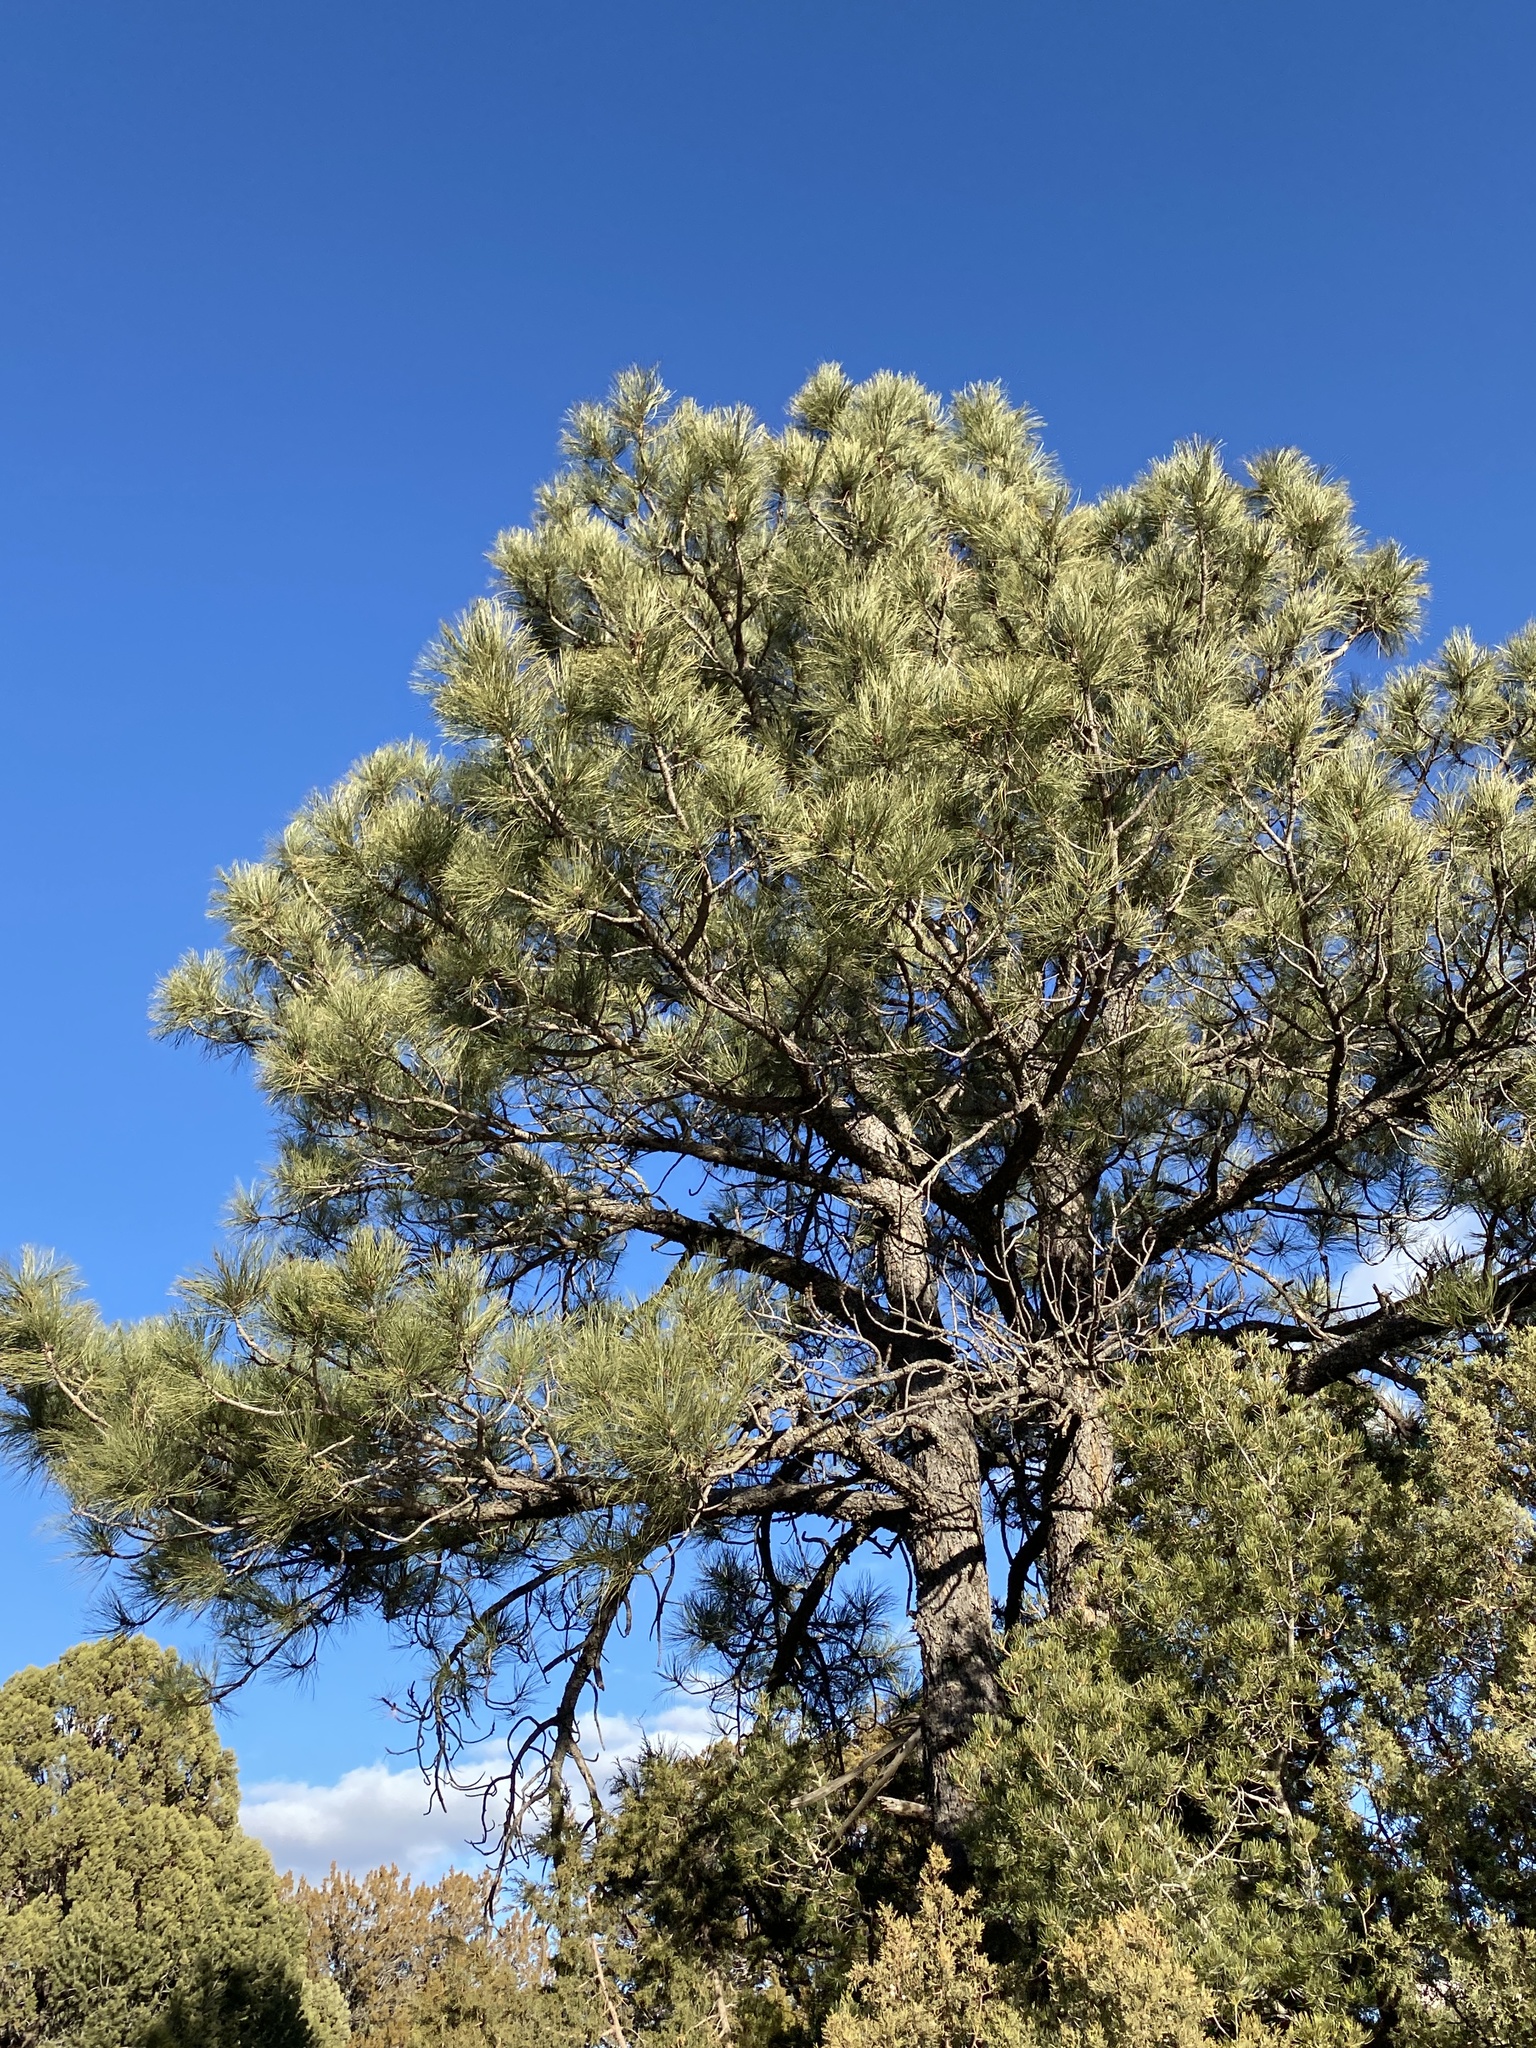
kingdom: Plantae
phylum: Tracheophyta
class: Pinopsida
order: Pinales
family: Pinaceae
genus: Pinus
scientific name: Pinus ponderosa
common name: Western yellow-pine
